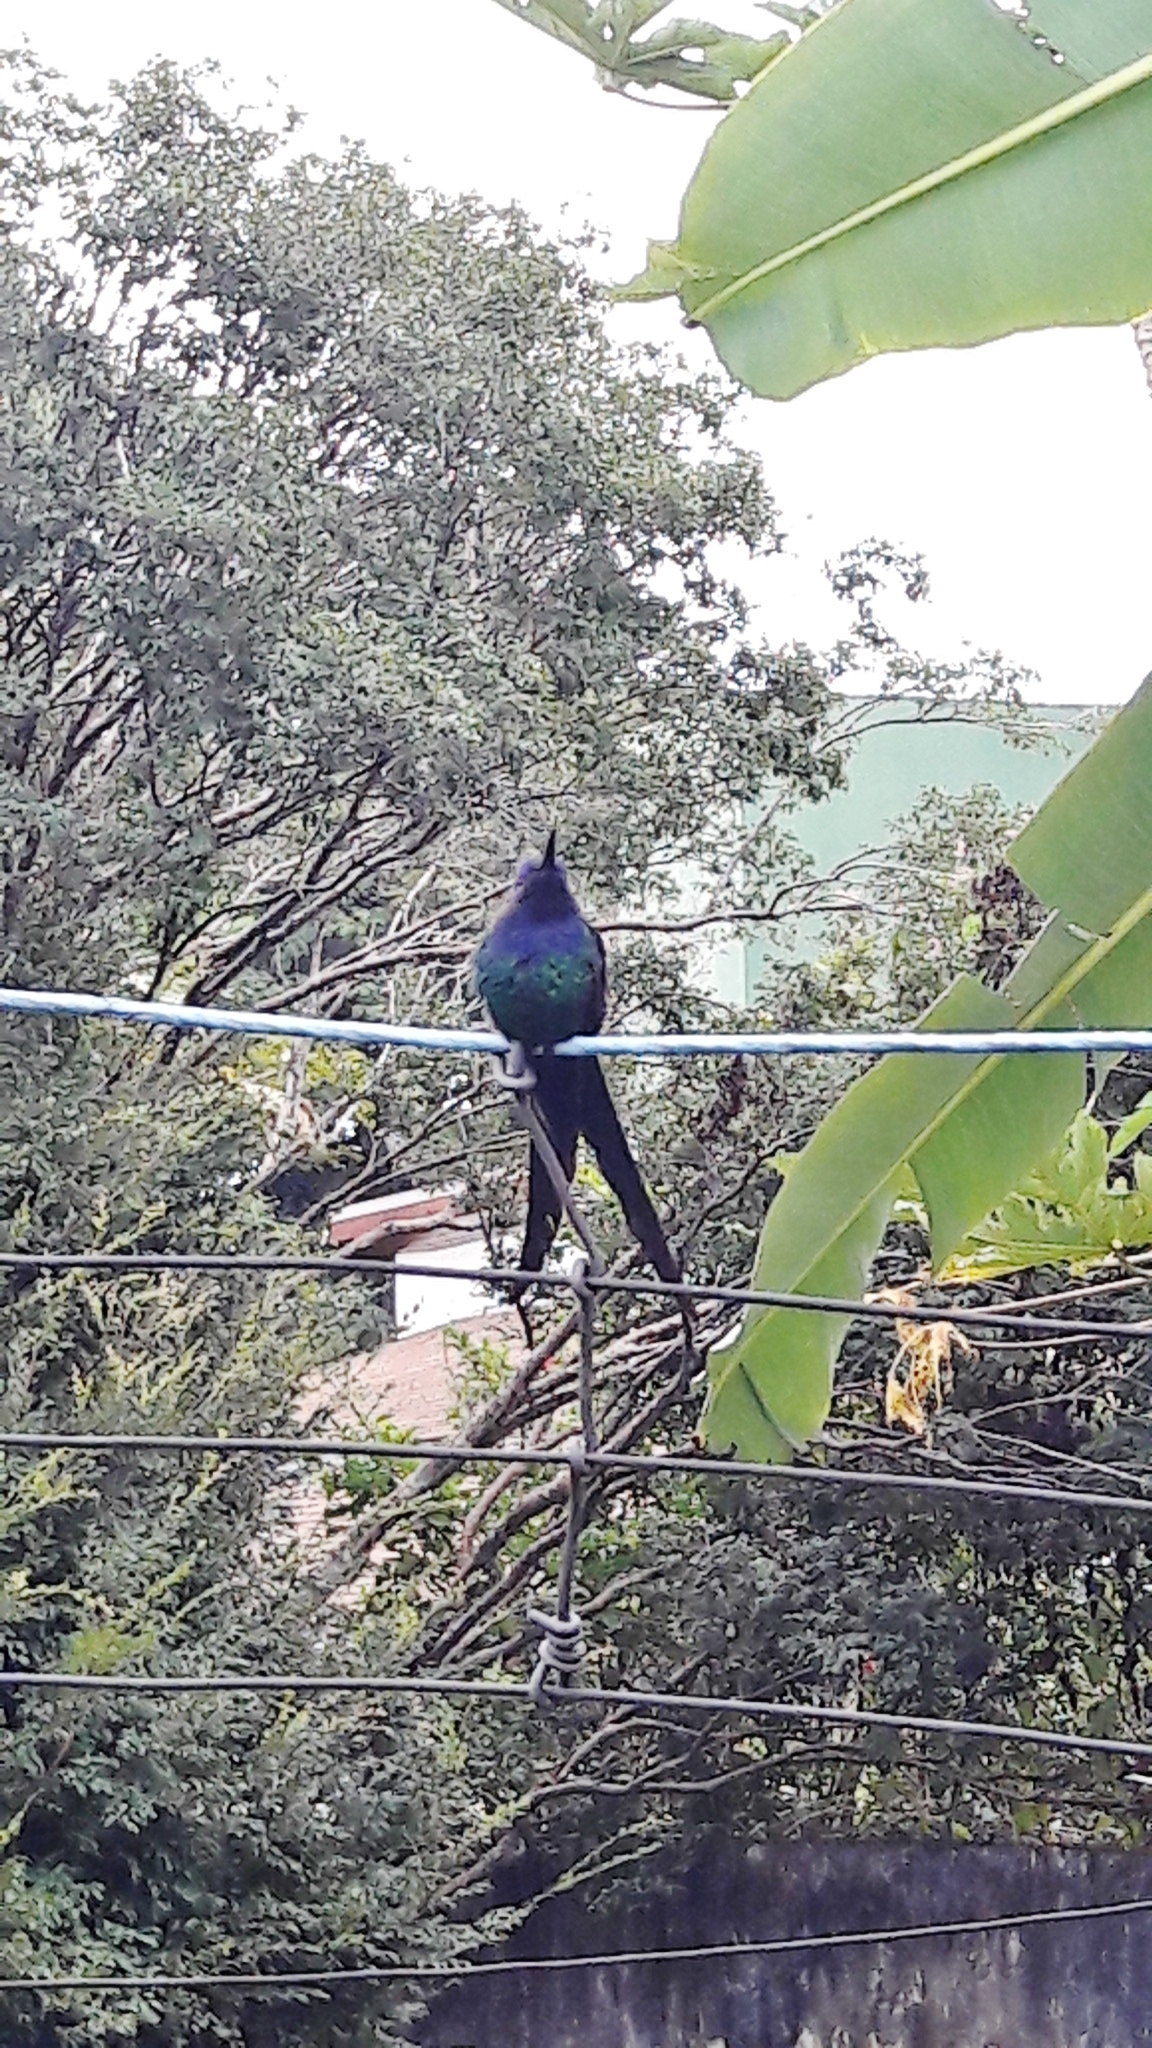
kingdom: Animalia
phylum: Chordata
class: Aves
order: Apodiformes
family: Trochilidae
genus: Eupetomena
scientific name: Eupetomena macroura
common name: Swallow-tailed hummingbird
